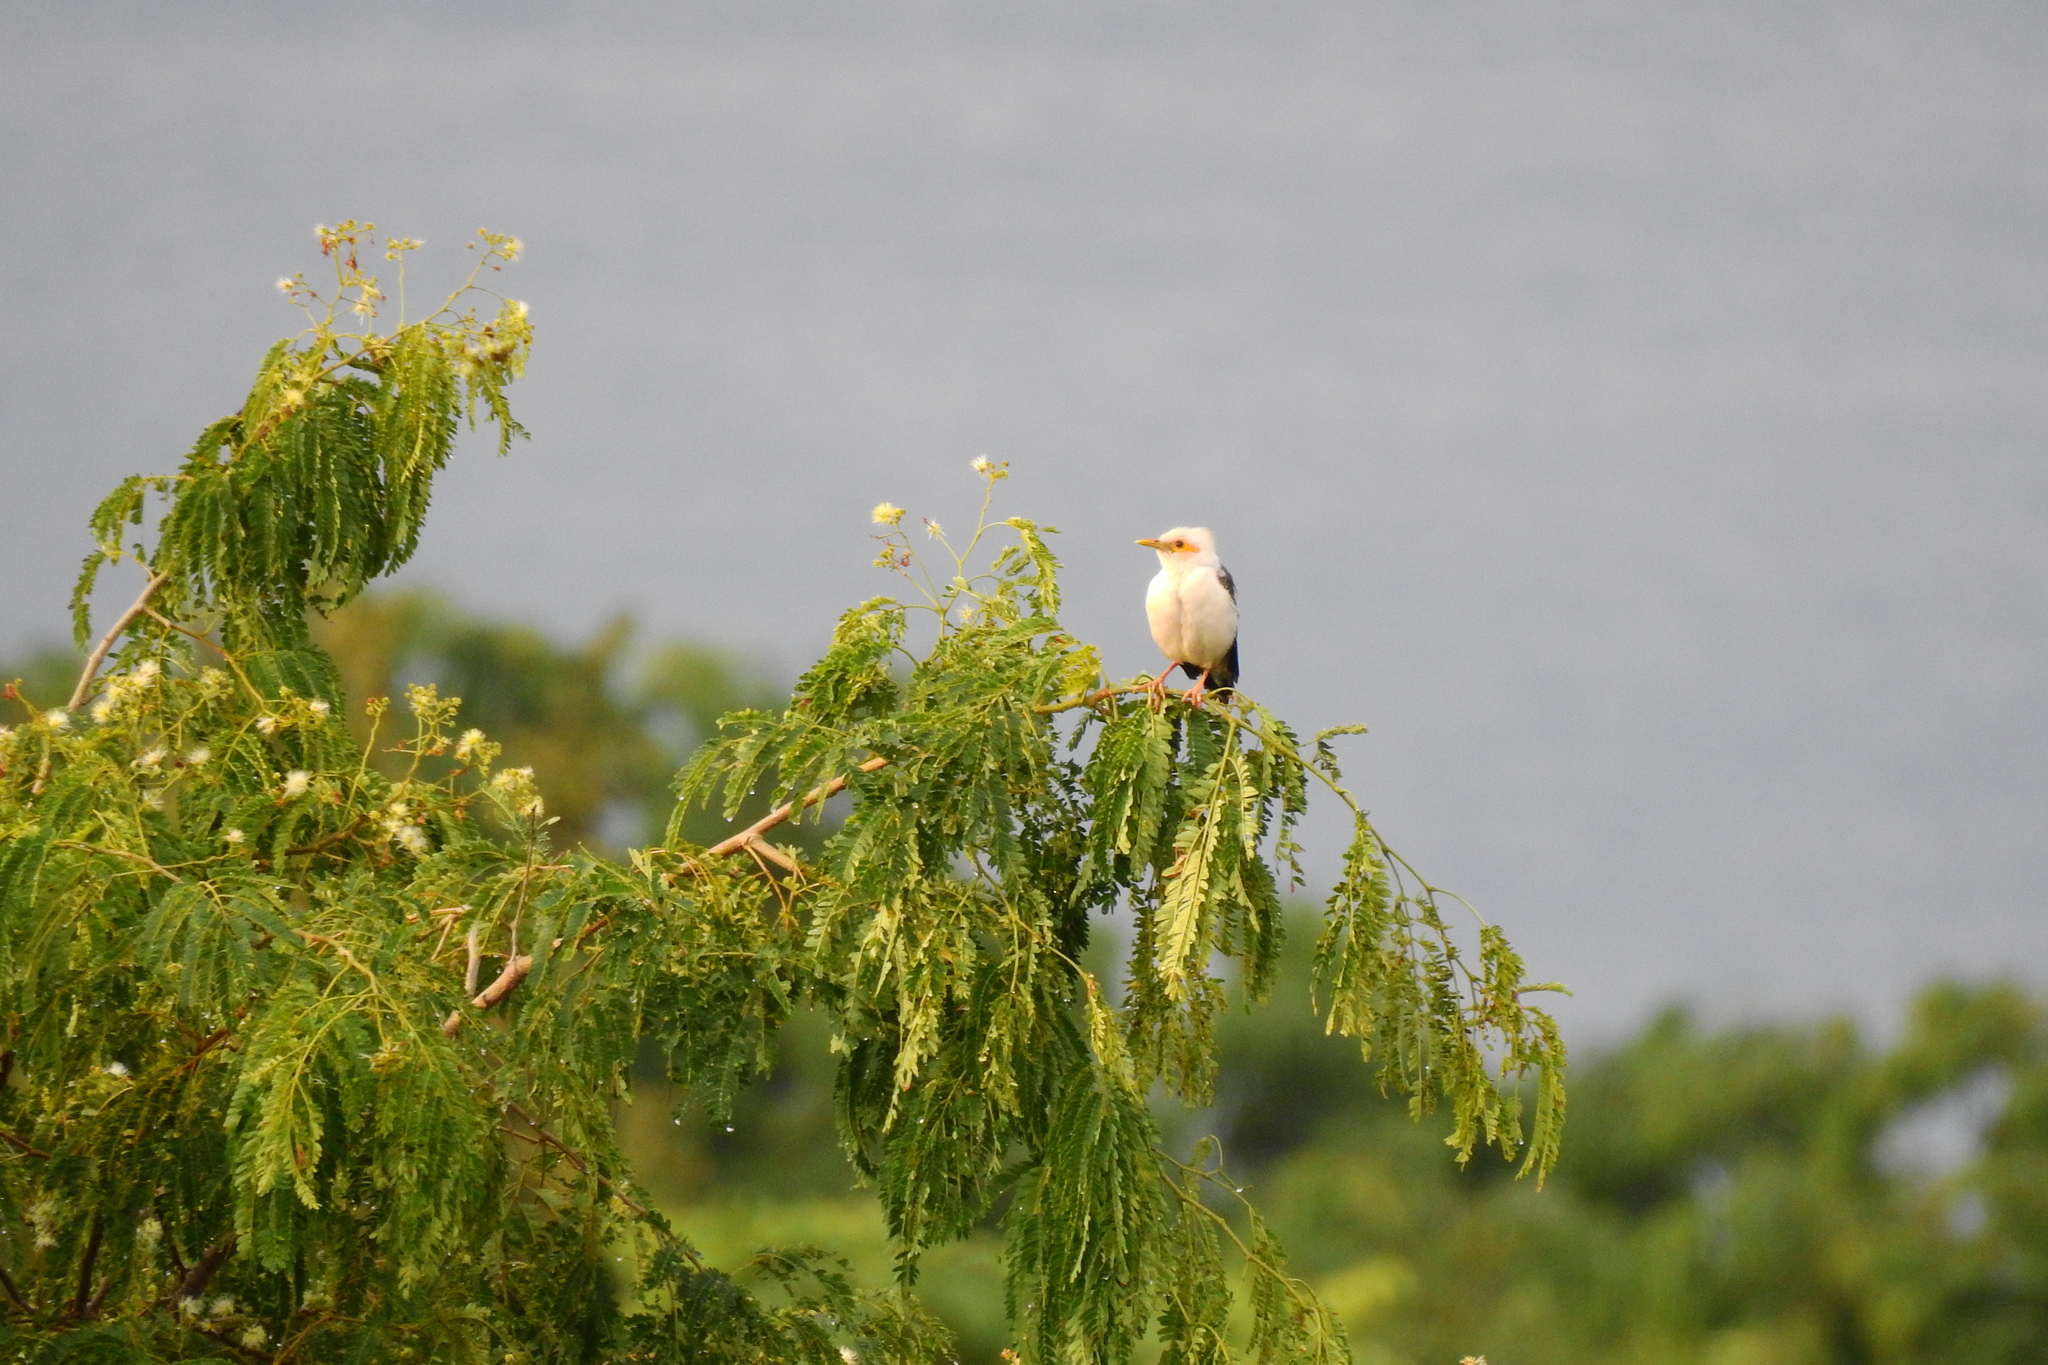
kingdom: Animalia
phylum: Chordata
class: Aves
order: Passeriformes
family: Sturnidae
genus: Acridotheres
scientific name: Acridotheres melanopterus
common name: Black-winged starling
